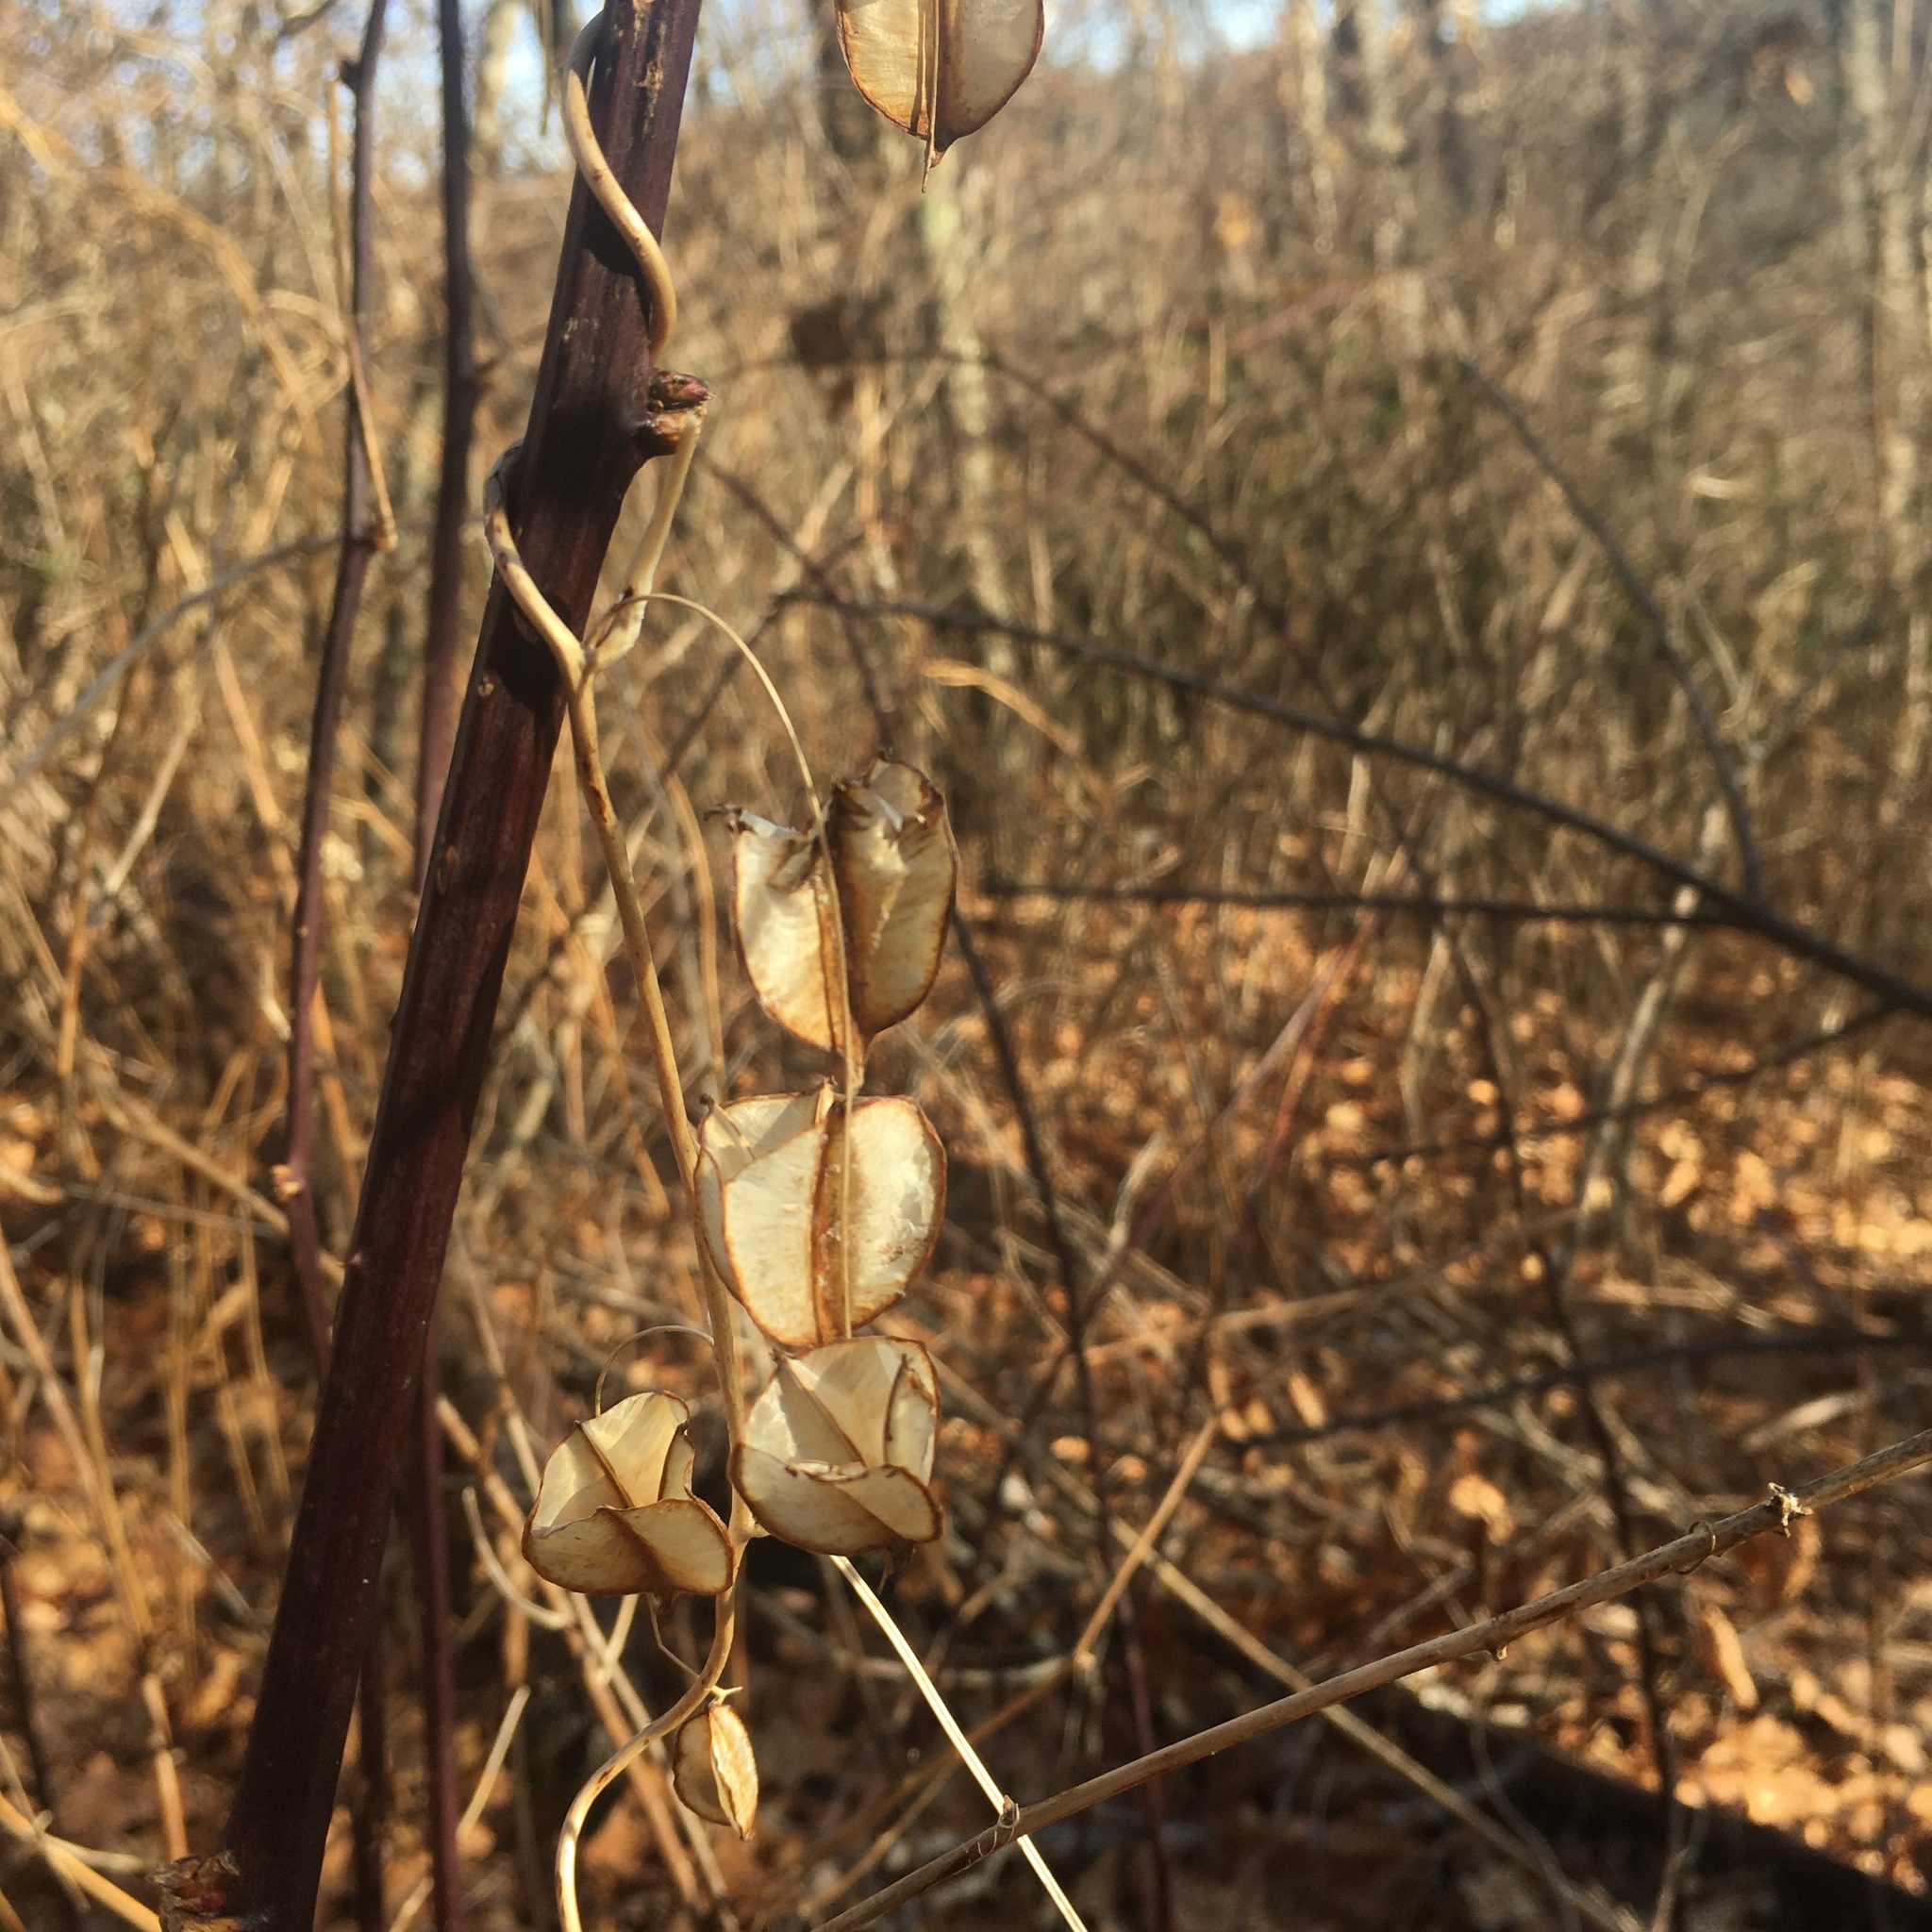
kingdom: Plantae
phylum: Tracheophyta
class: Liliopsida
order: Dioscoreales
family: Dioscoreaceae
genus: Dioscorea
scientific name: Dioscorea villosa
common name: Wild yam
